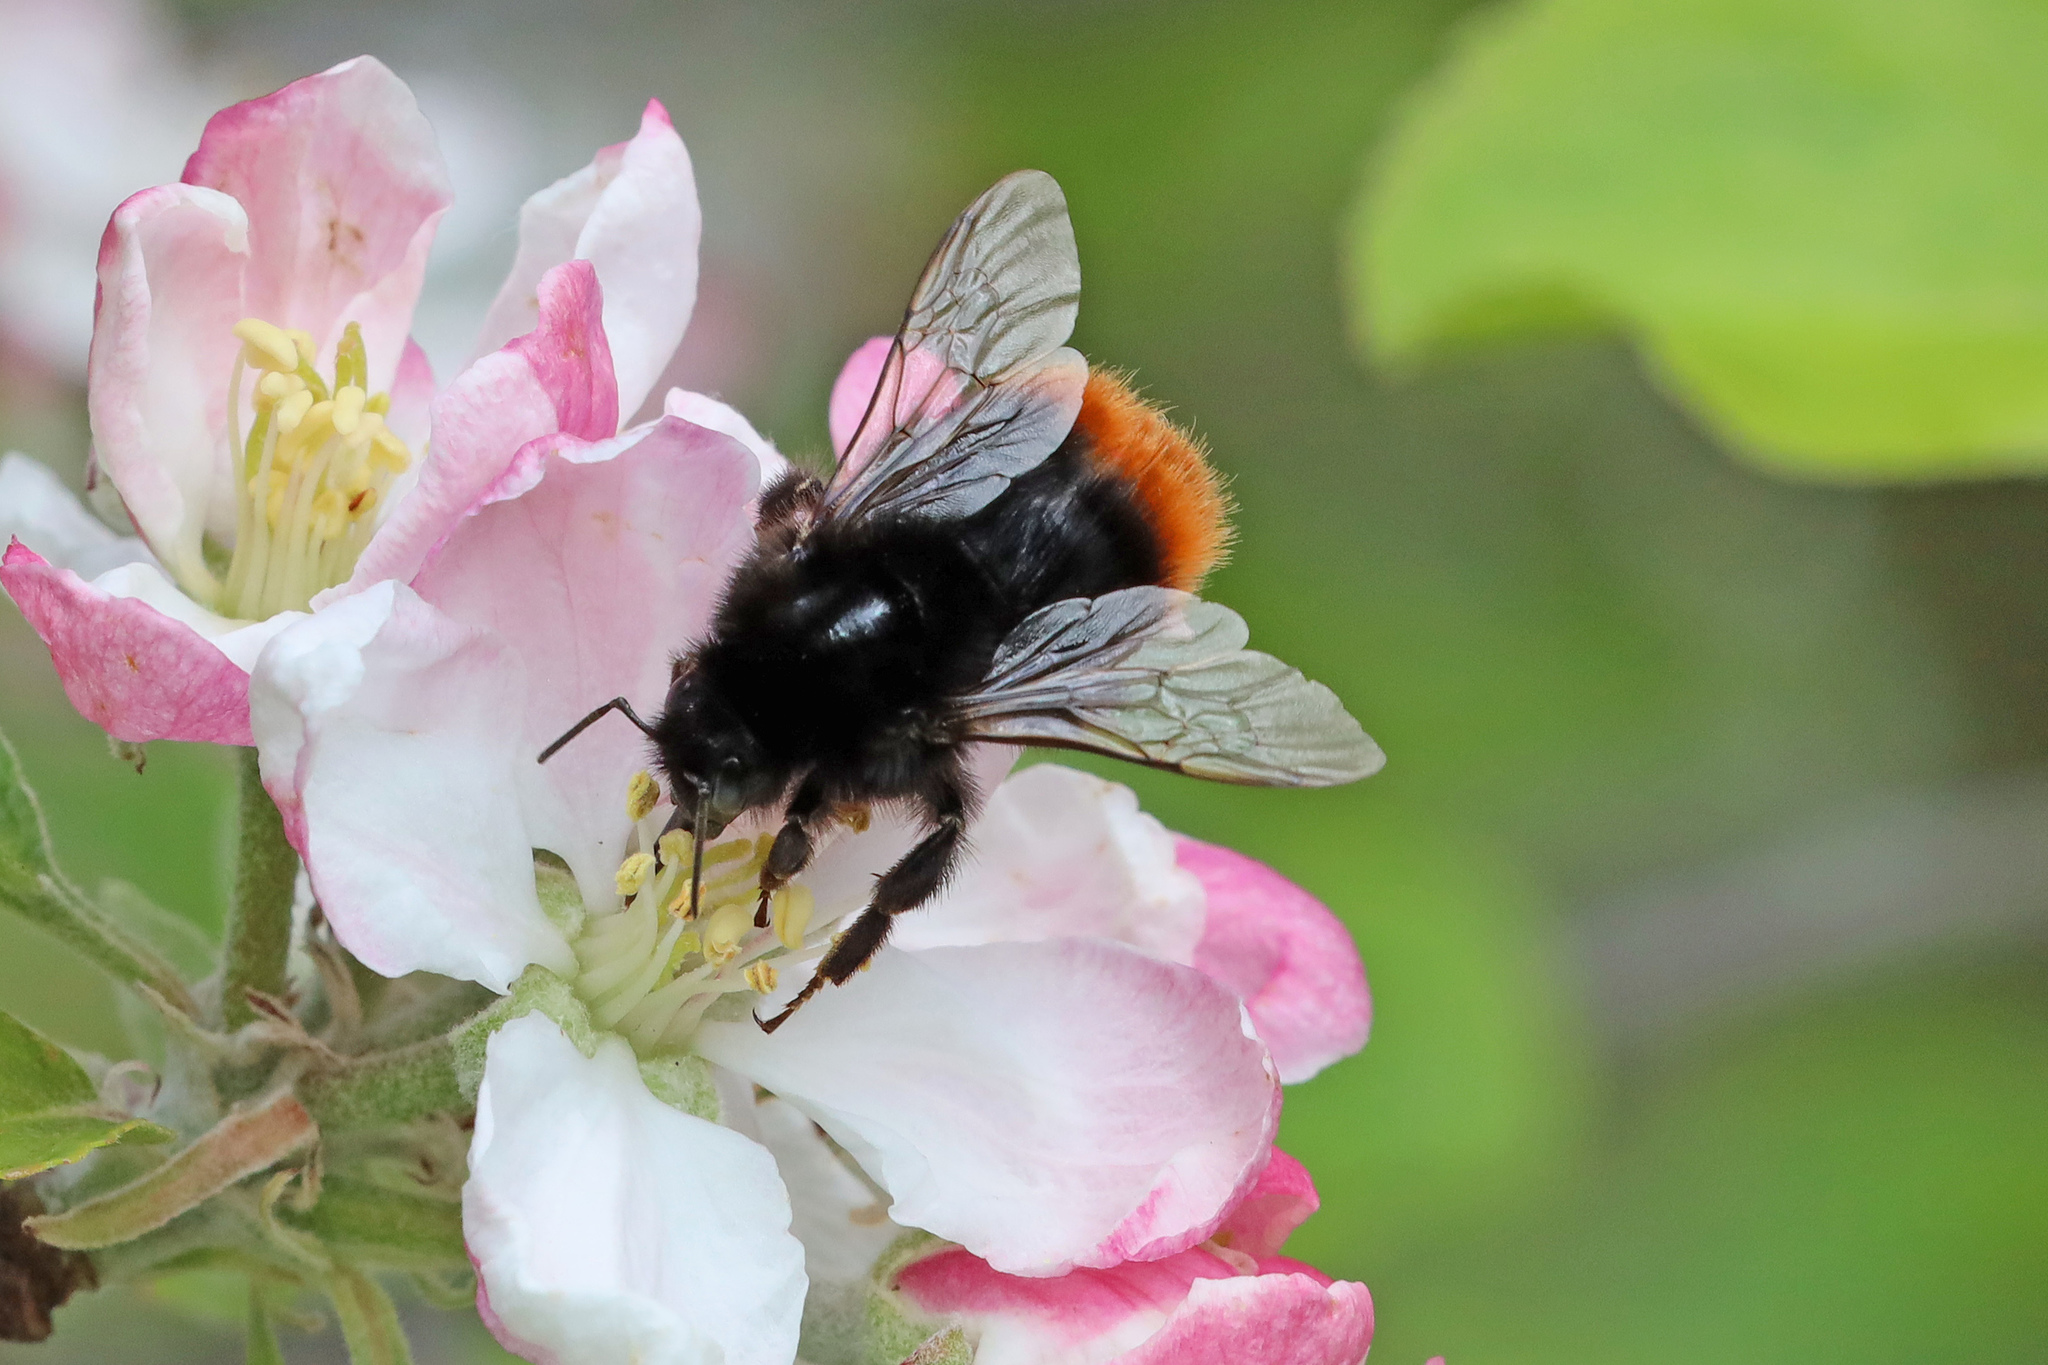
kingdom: Animalia
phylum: Arthropoda
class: Insecta
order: Hymenoptera
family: Apidae
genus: Bombus
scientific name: Bombus lapidarius
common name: Large red-tailed humble-bee
